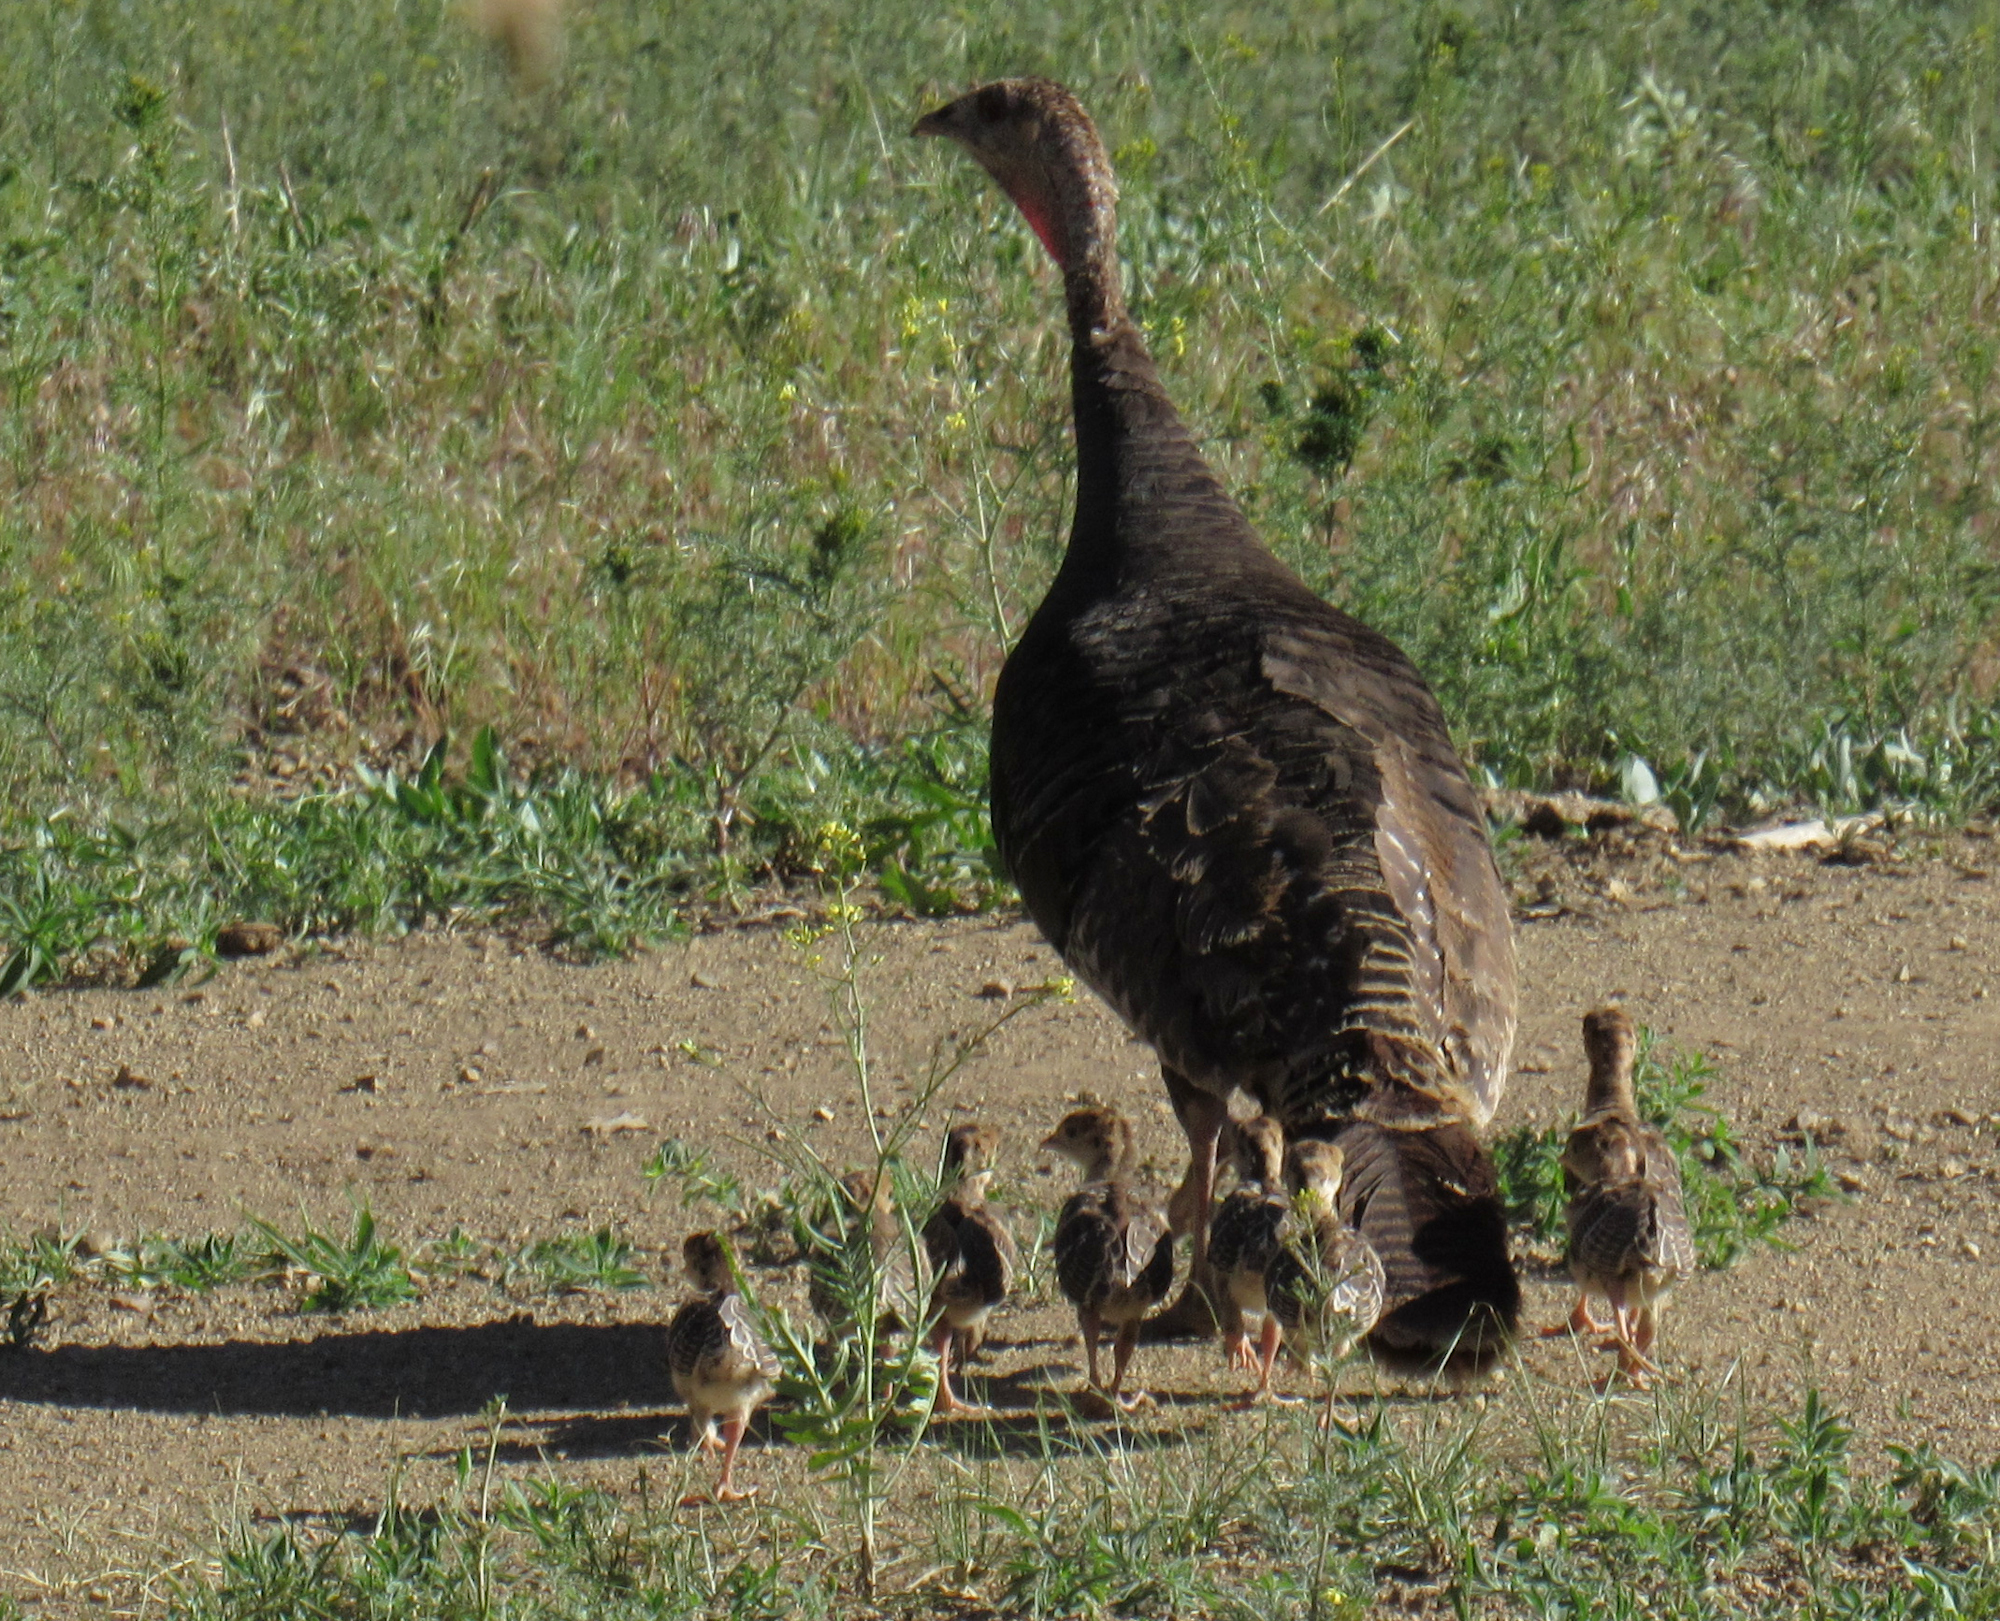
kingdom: Animalia
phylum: Chordata
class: Aves
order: Galliformes
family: Phasianidae
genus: Meleagris
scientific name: Meleagris gallopavo
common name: Wild turkey
